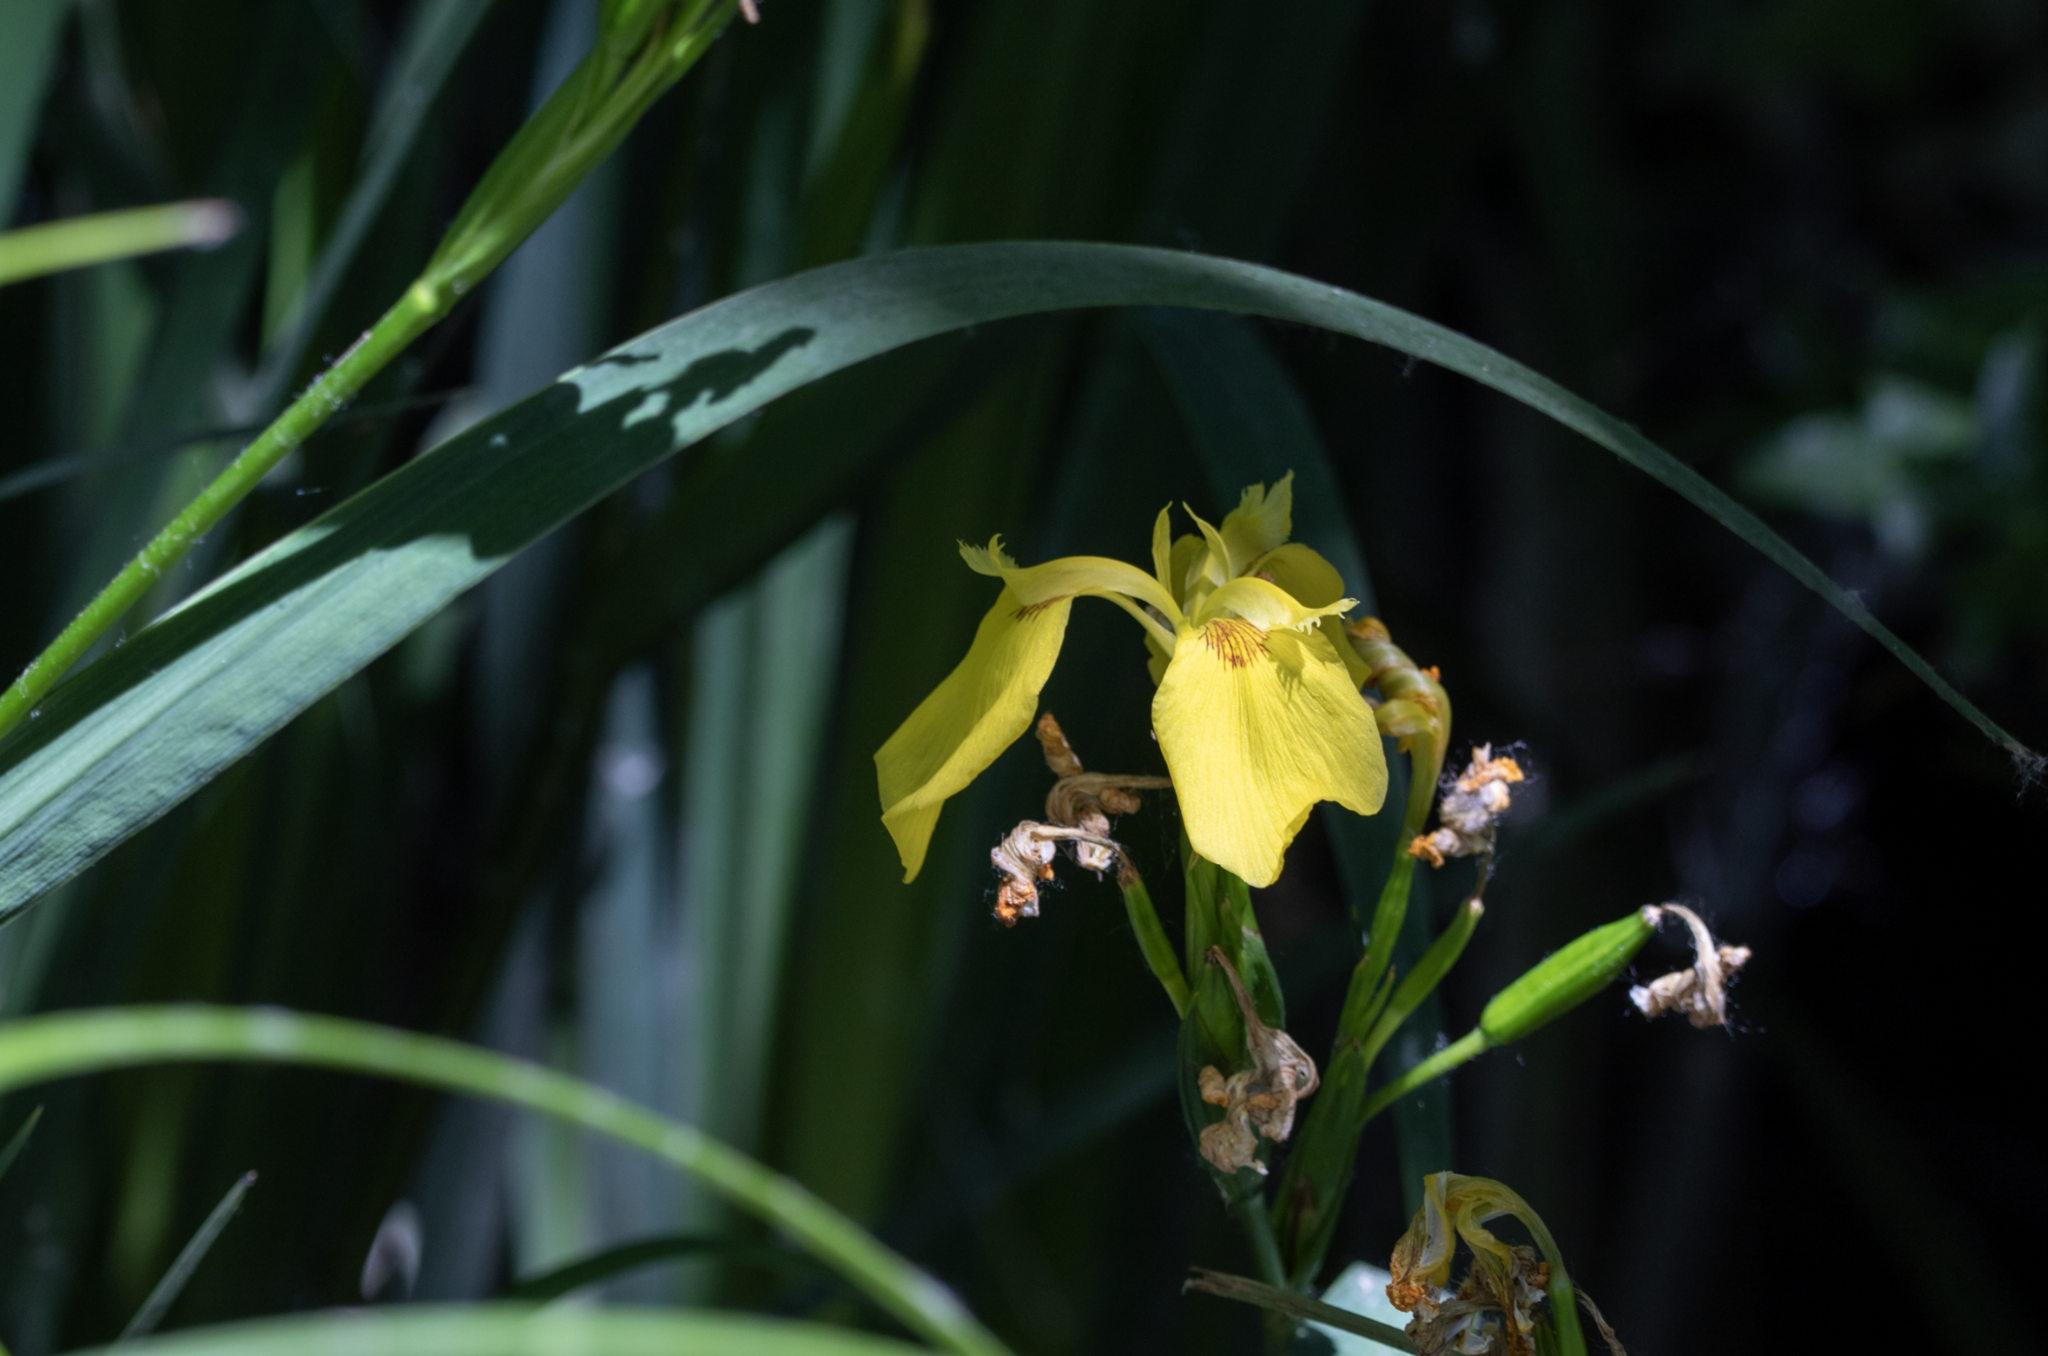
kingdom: Plantae
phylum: Tracheophyta
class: Liliopsida
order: Asparagales
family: Iridaceae
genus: Iris
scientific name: Iris pseudacorus
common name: Yellow flag
